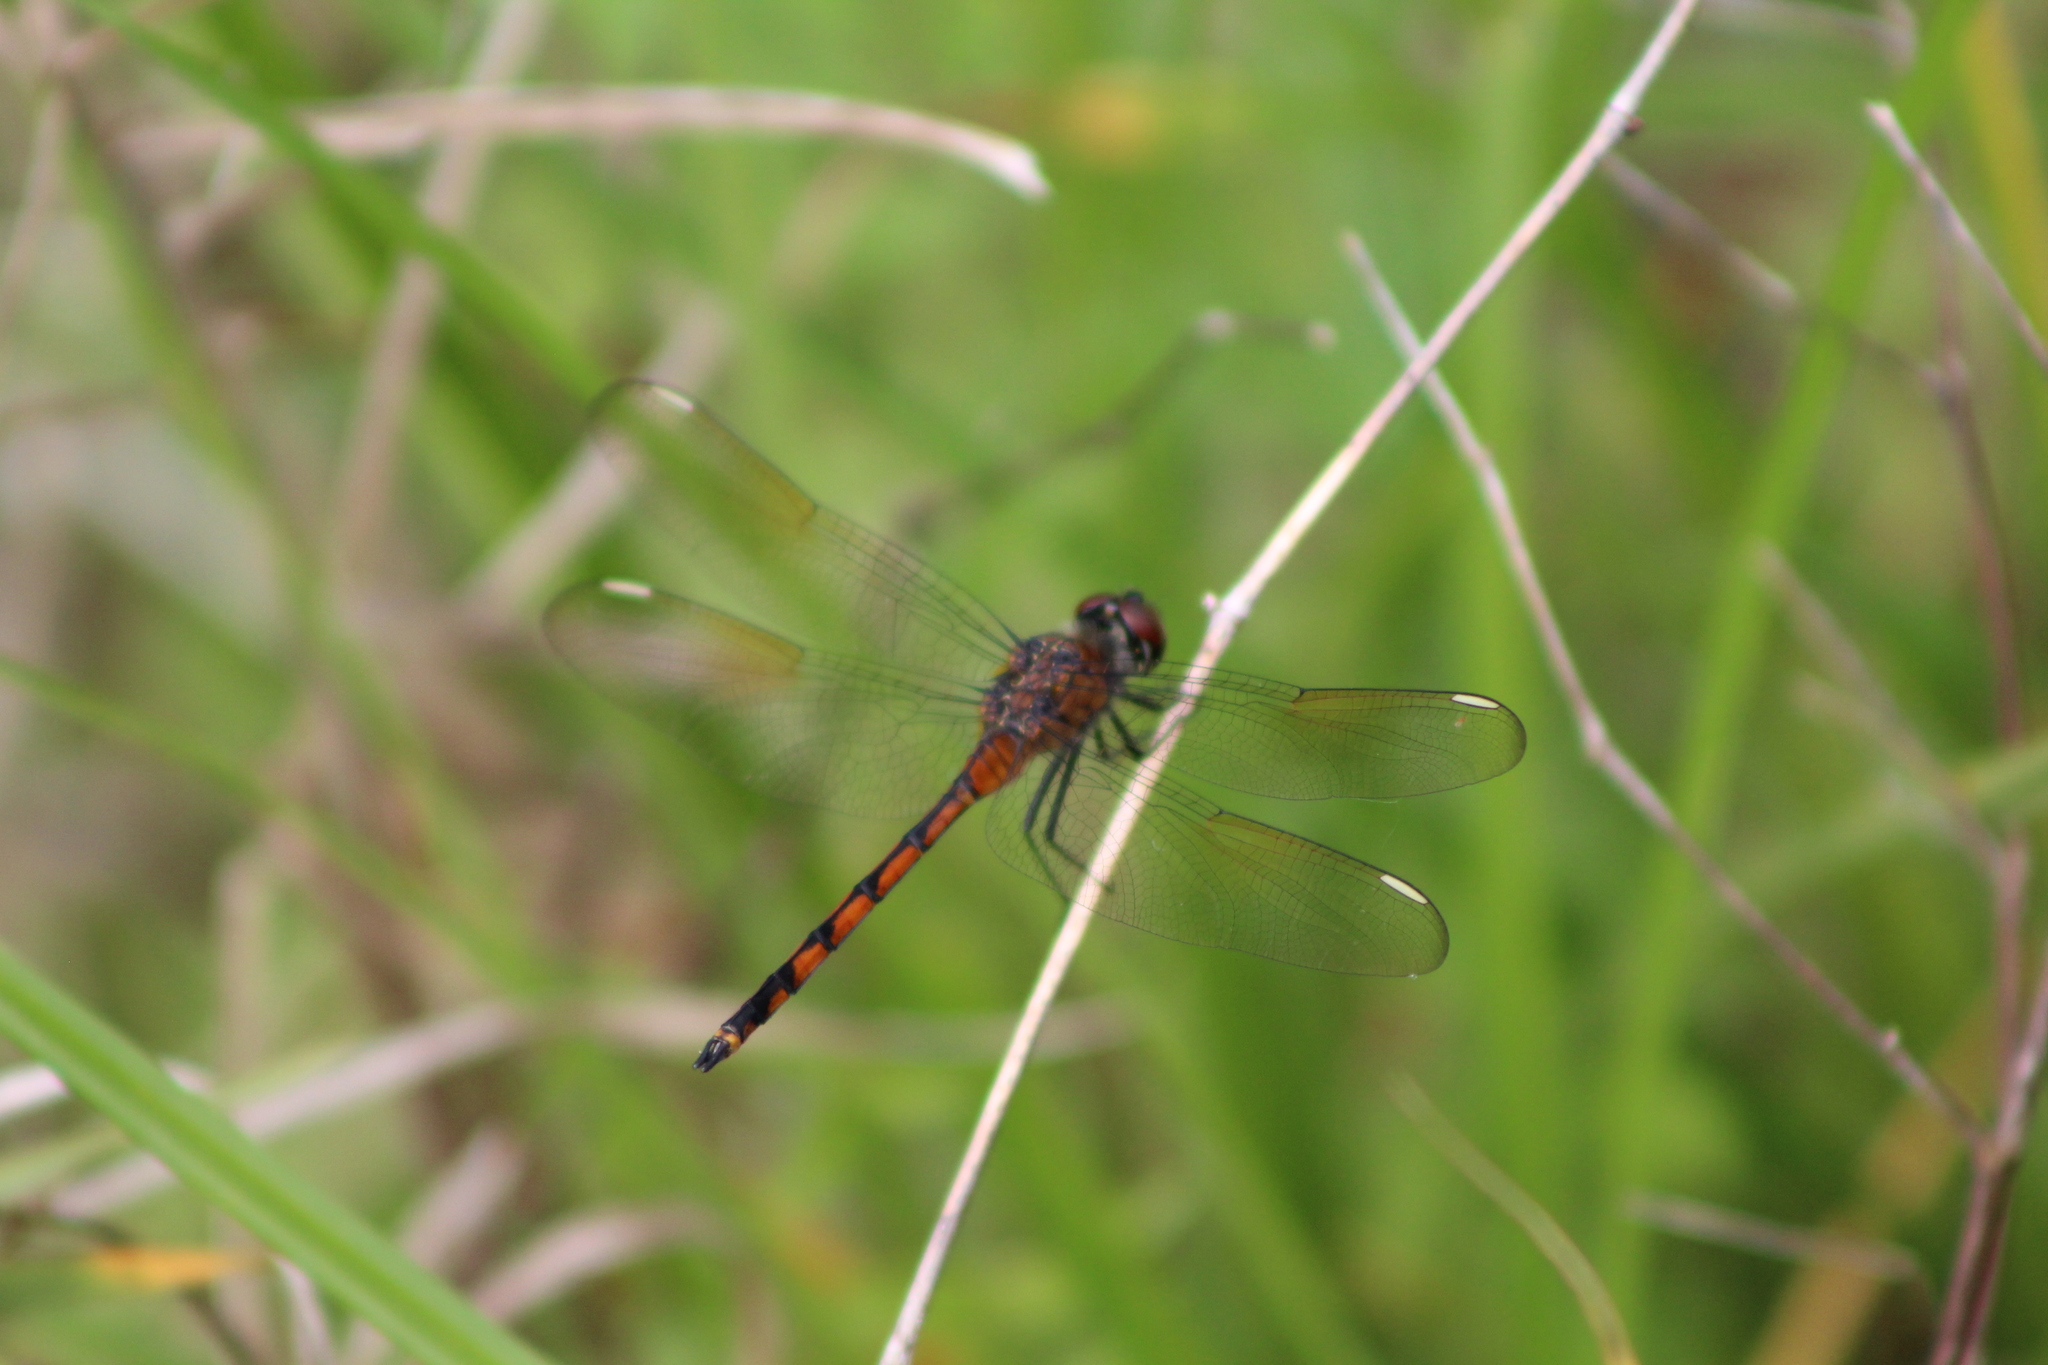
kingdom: Animalia
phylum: Arthropoda
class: Insecta
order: Odonata
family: Libellulidae
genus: Brachymesia
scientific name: Brachymesia gravida
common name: Four-spotted pennant
